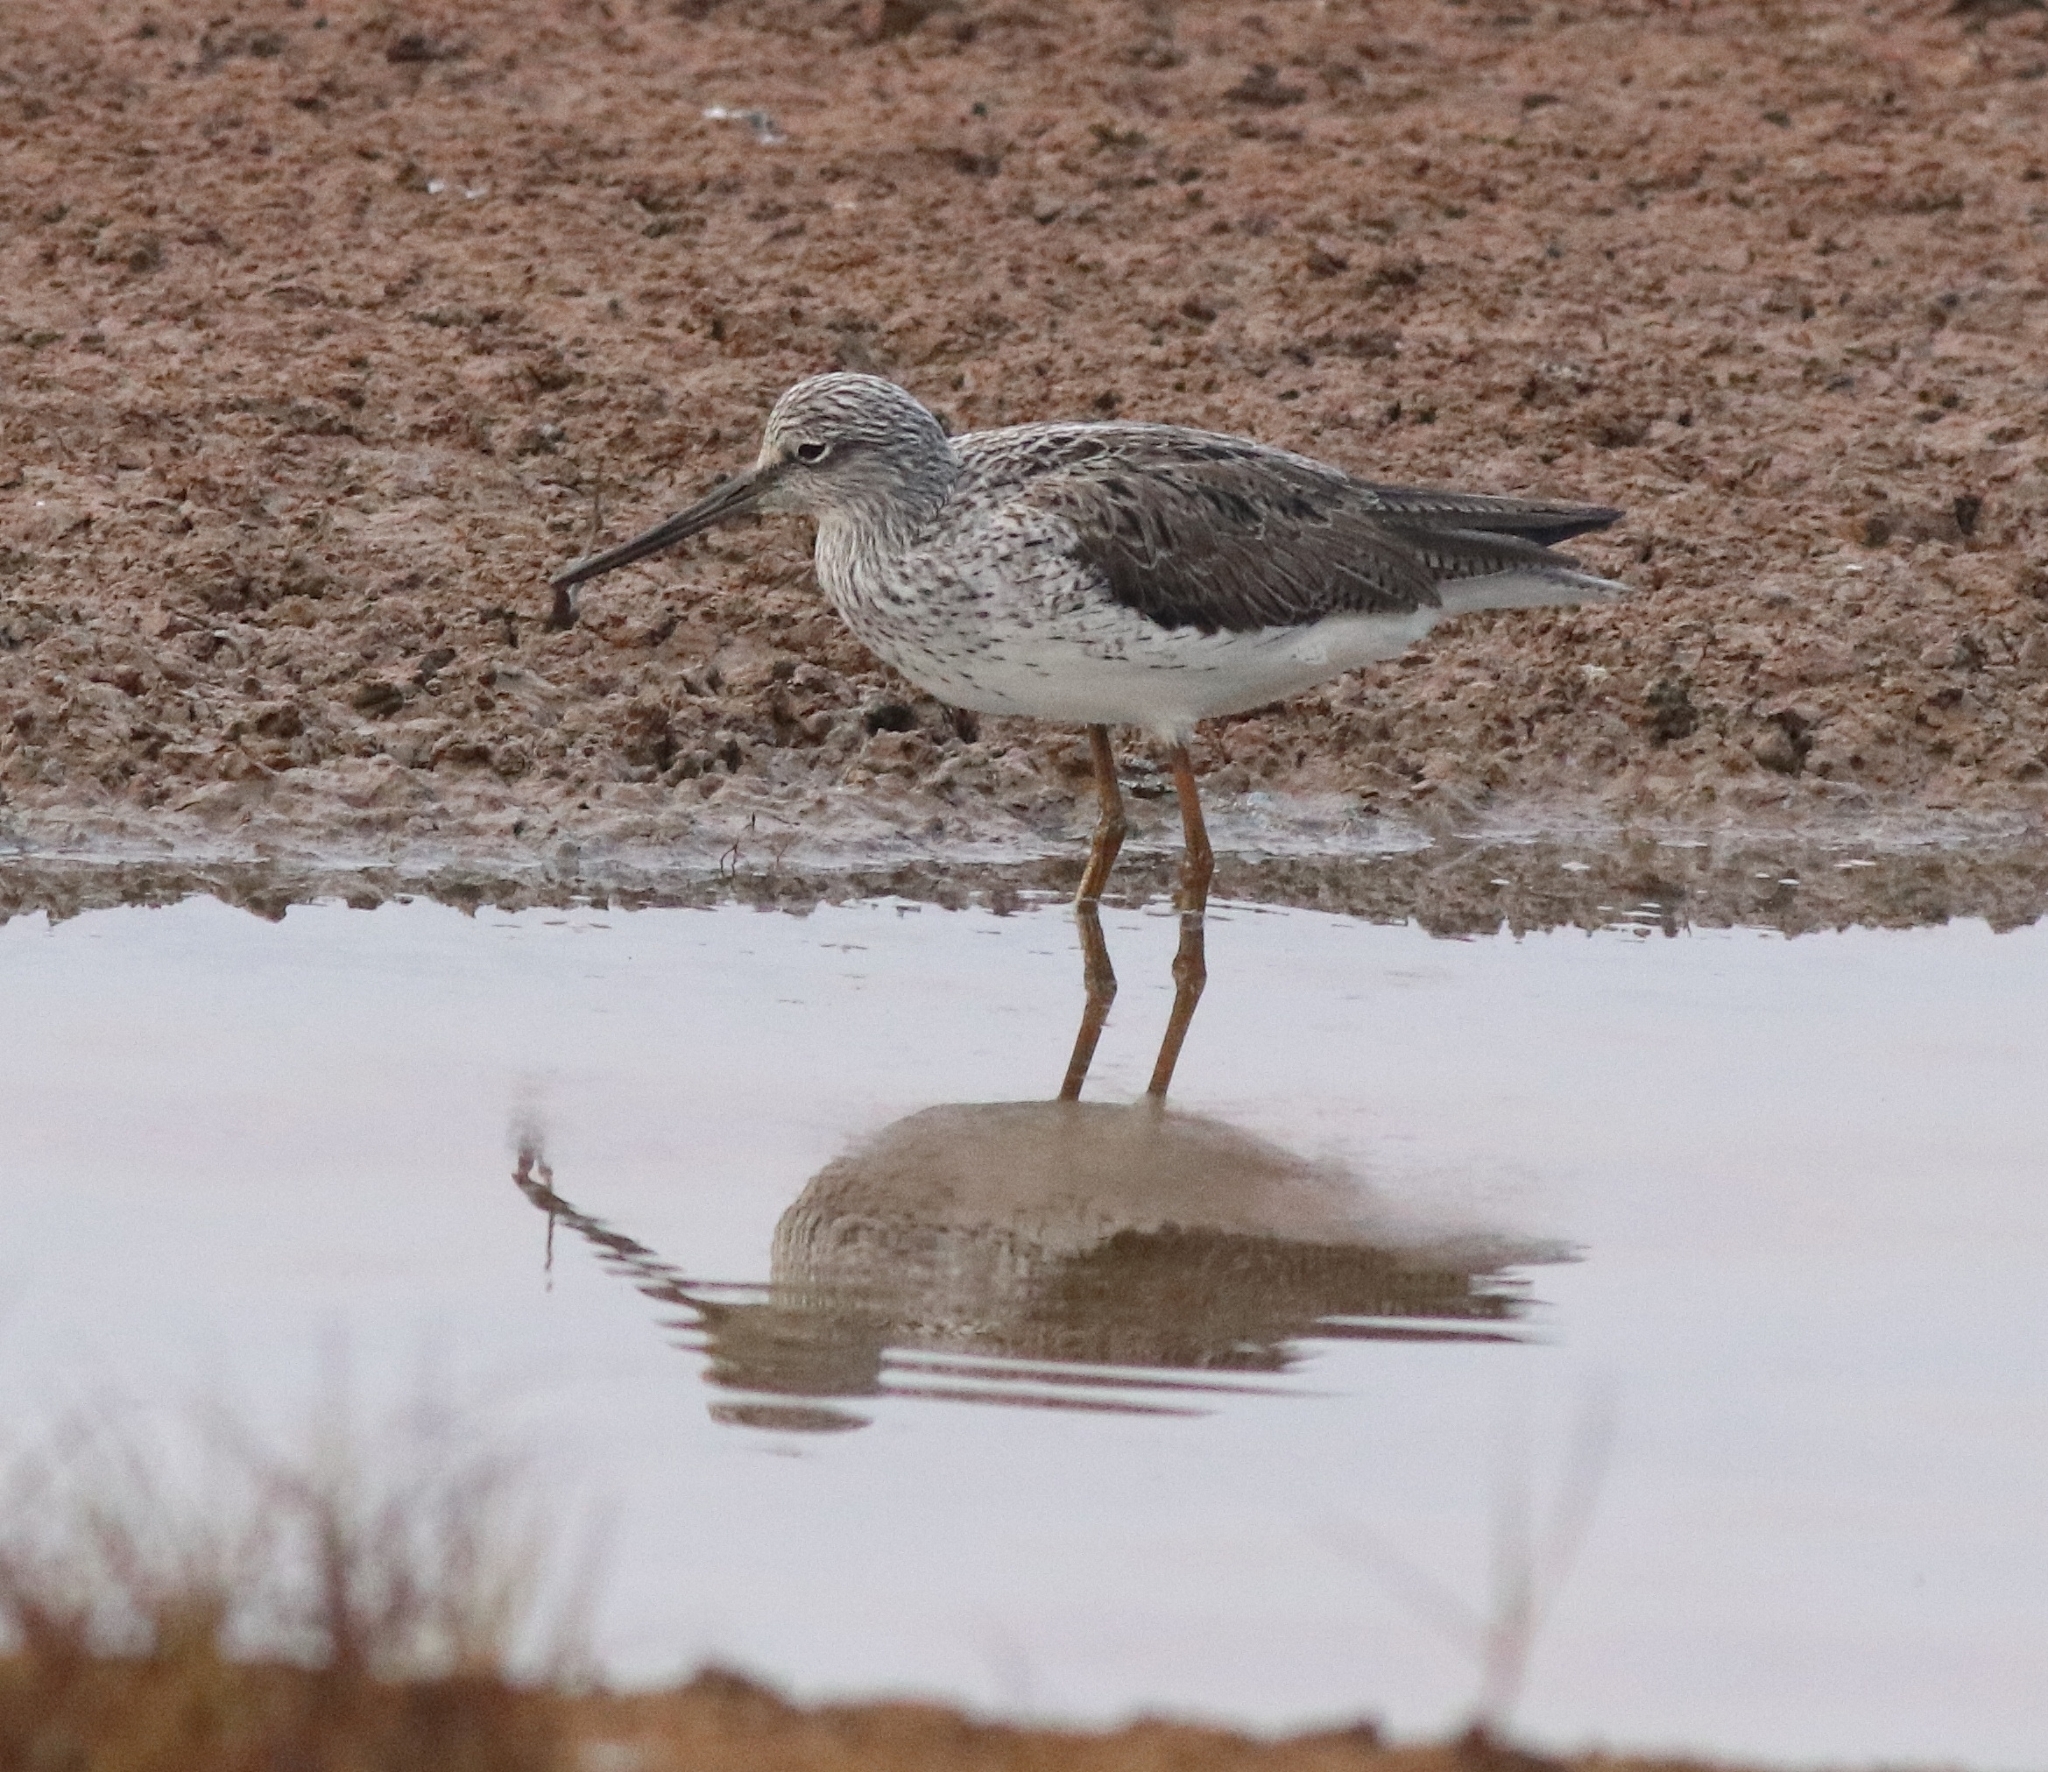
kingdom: Animalia
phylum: Chordata
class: Aves
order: Charadriiformes
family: Scolopacidae
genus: Tringa
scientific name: Tringa nebularia
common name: Common greenshank
